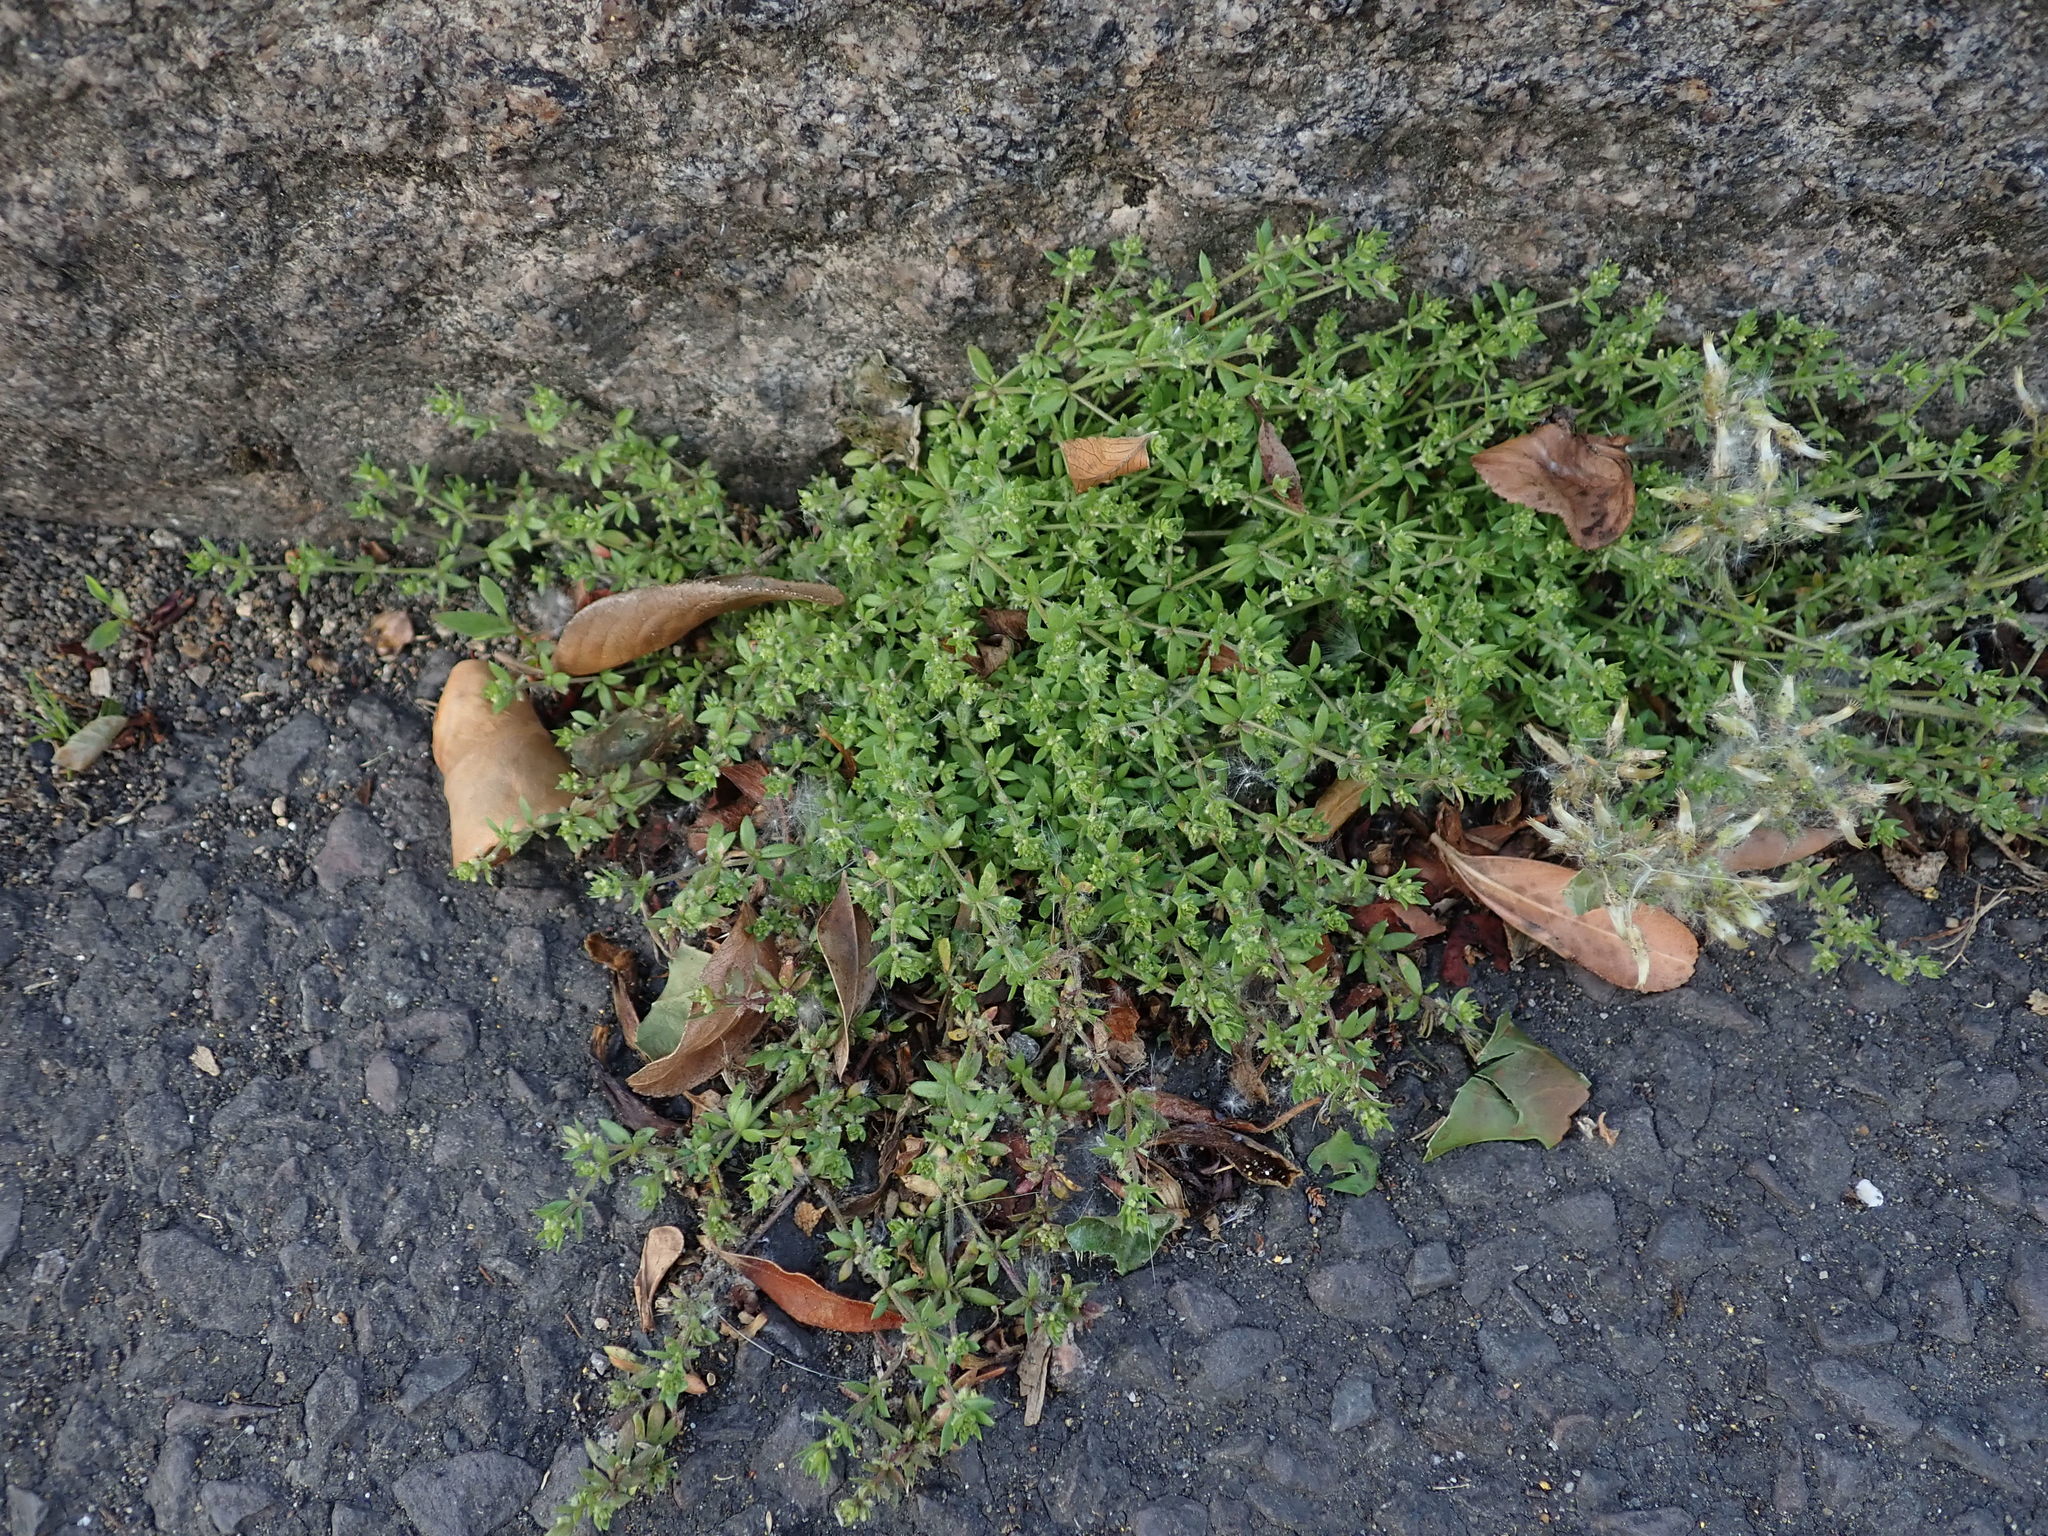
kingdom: Plantae
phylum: Tracheophyta
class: Magnoliopsida
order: Gentianales
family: Rubiaceae
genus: Galium
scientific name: Galium murale
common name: Yellow wall bedstraw
